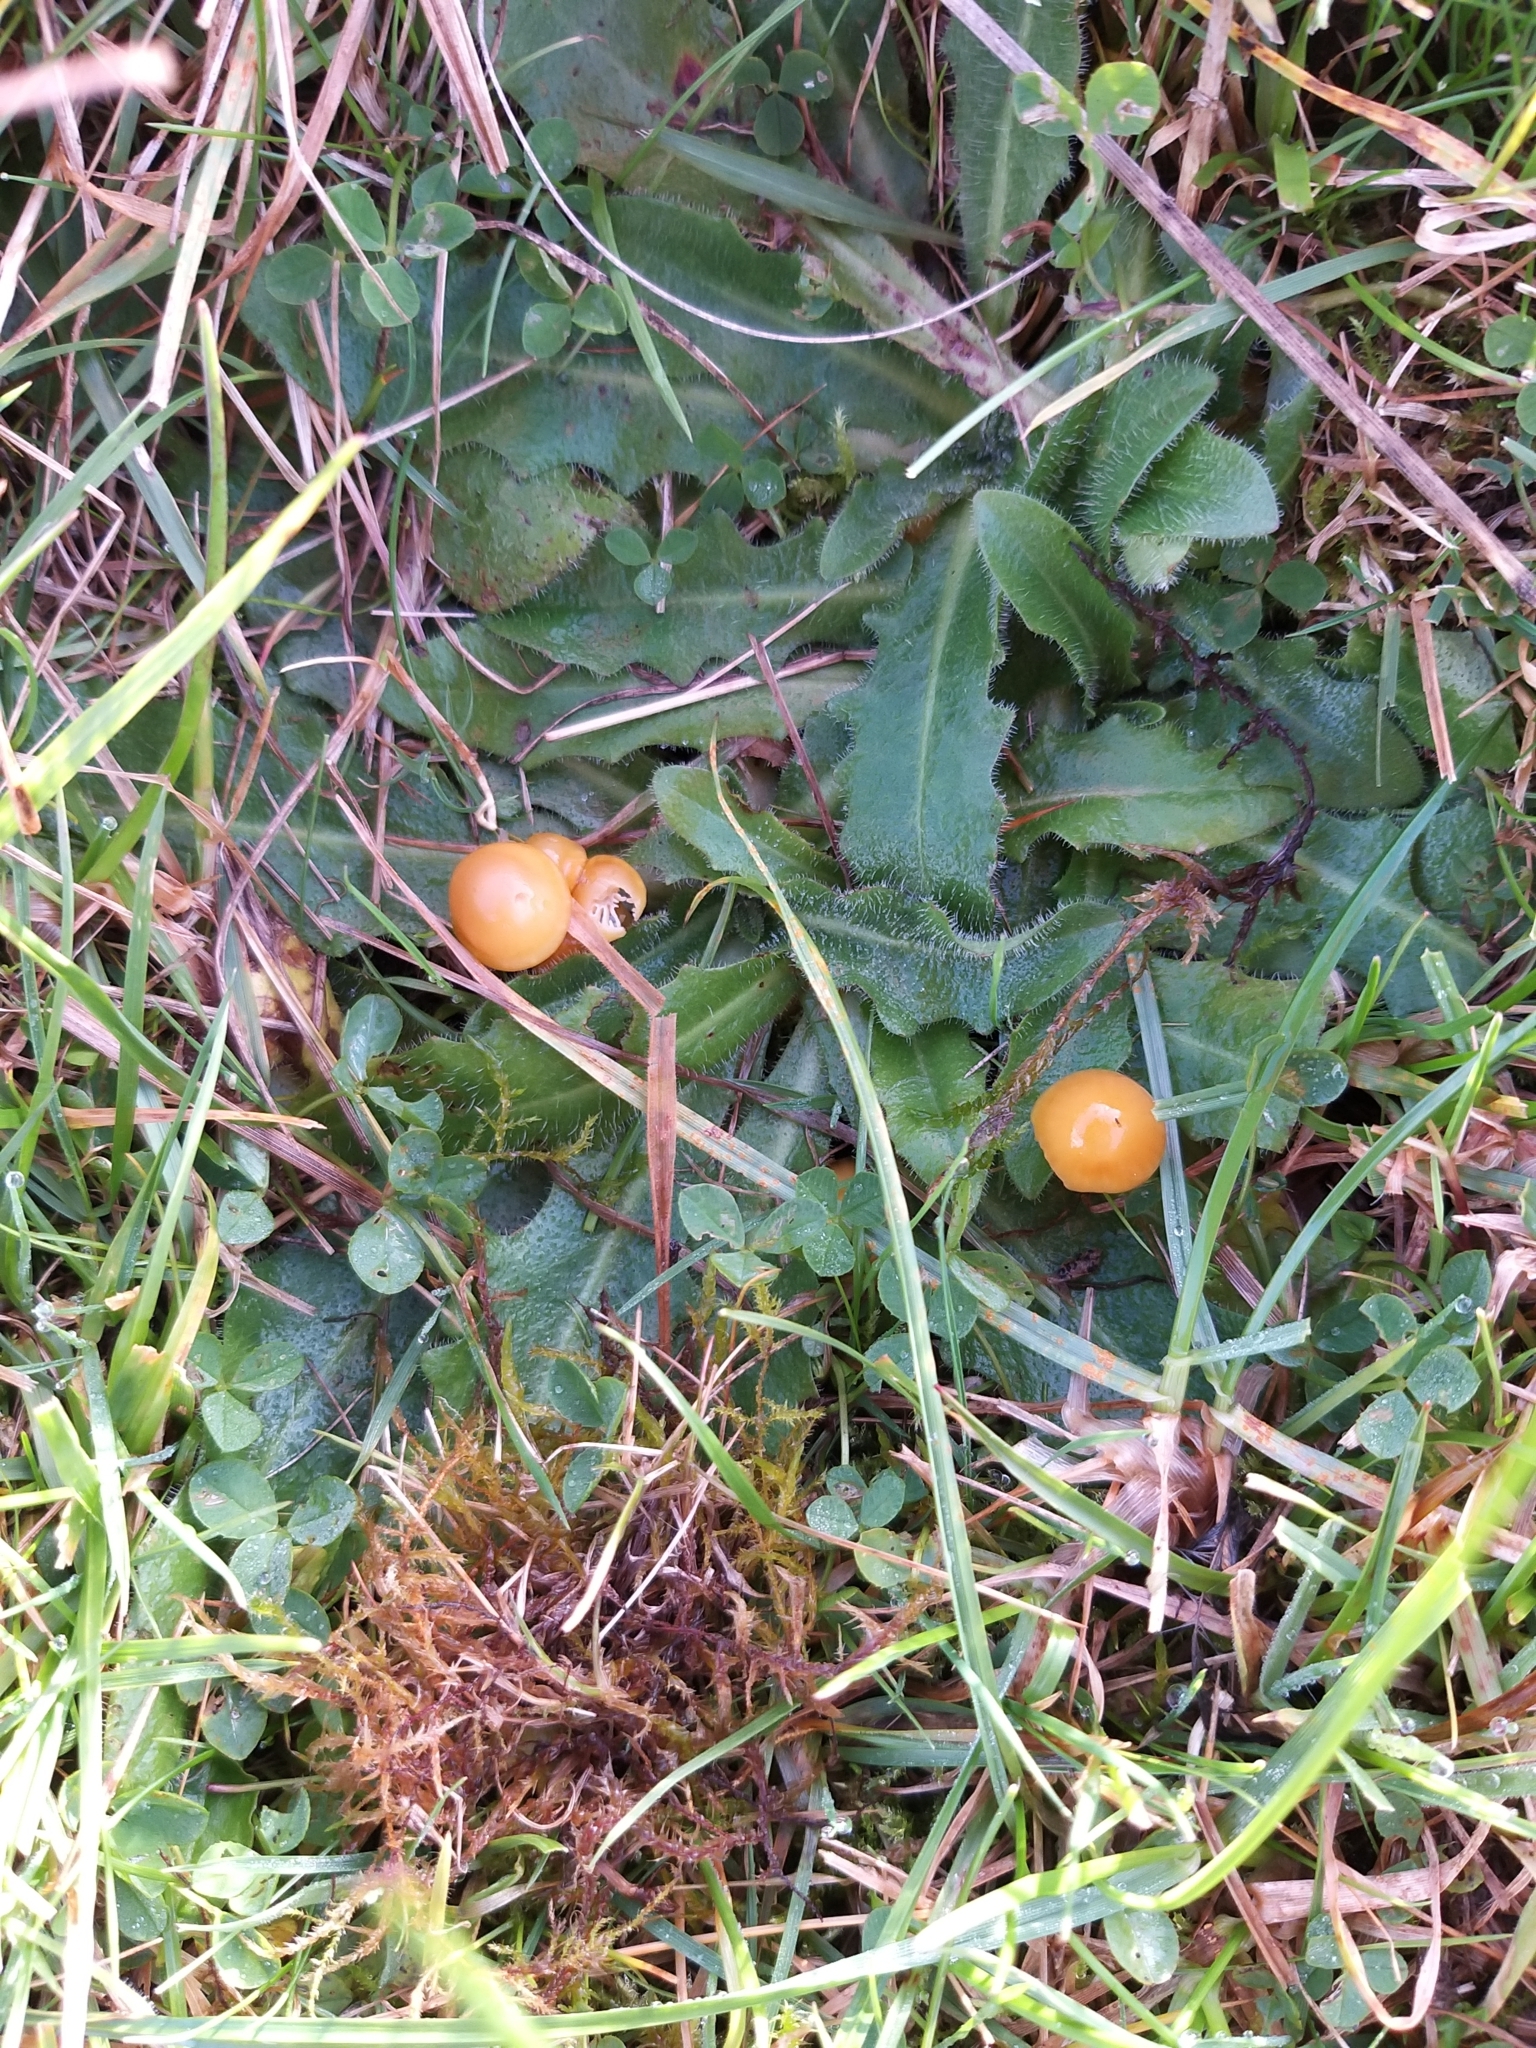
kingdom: Fungi
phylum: Basidiomycota
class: Agaricomycetes
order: Agaricales
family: Hygrophoraceae
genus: Gliophorus
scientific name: Gliophorus psittacinus
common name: Parrot wax-cap
